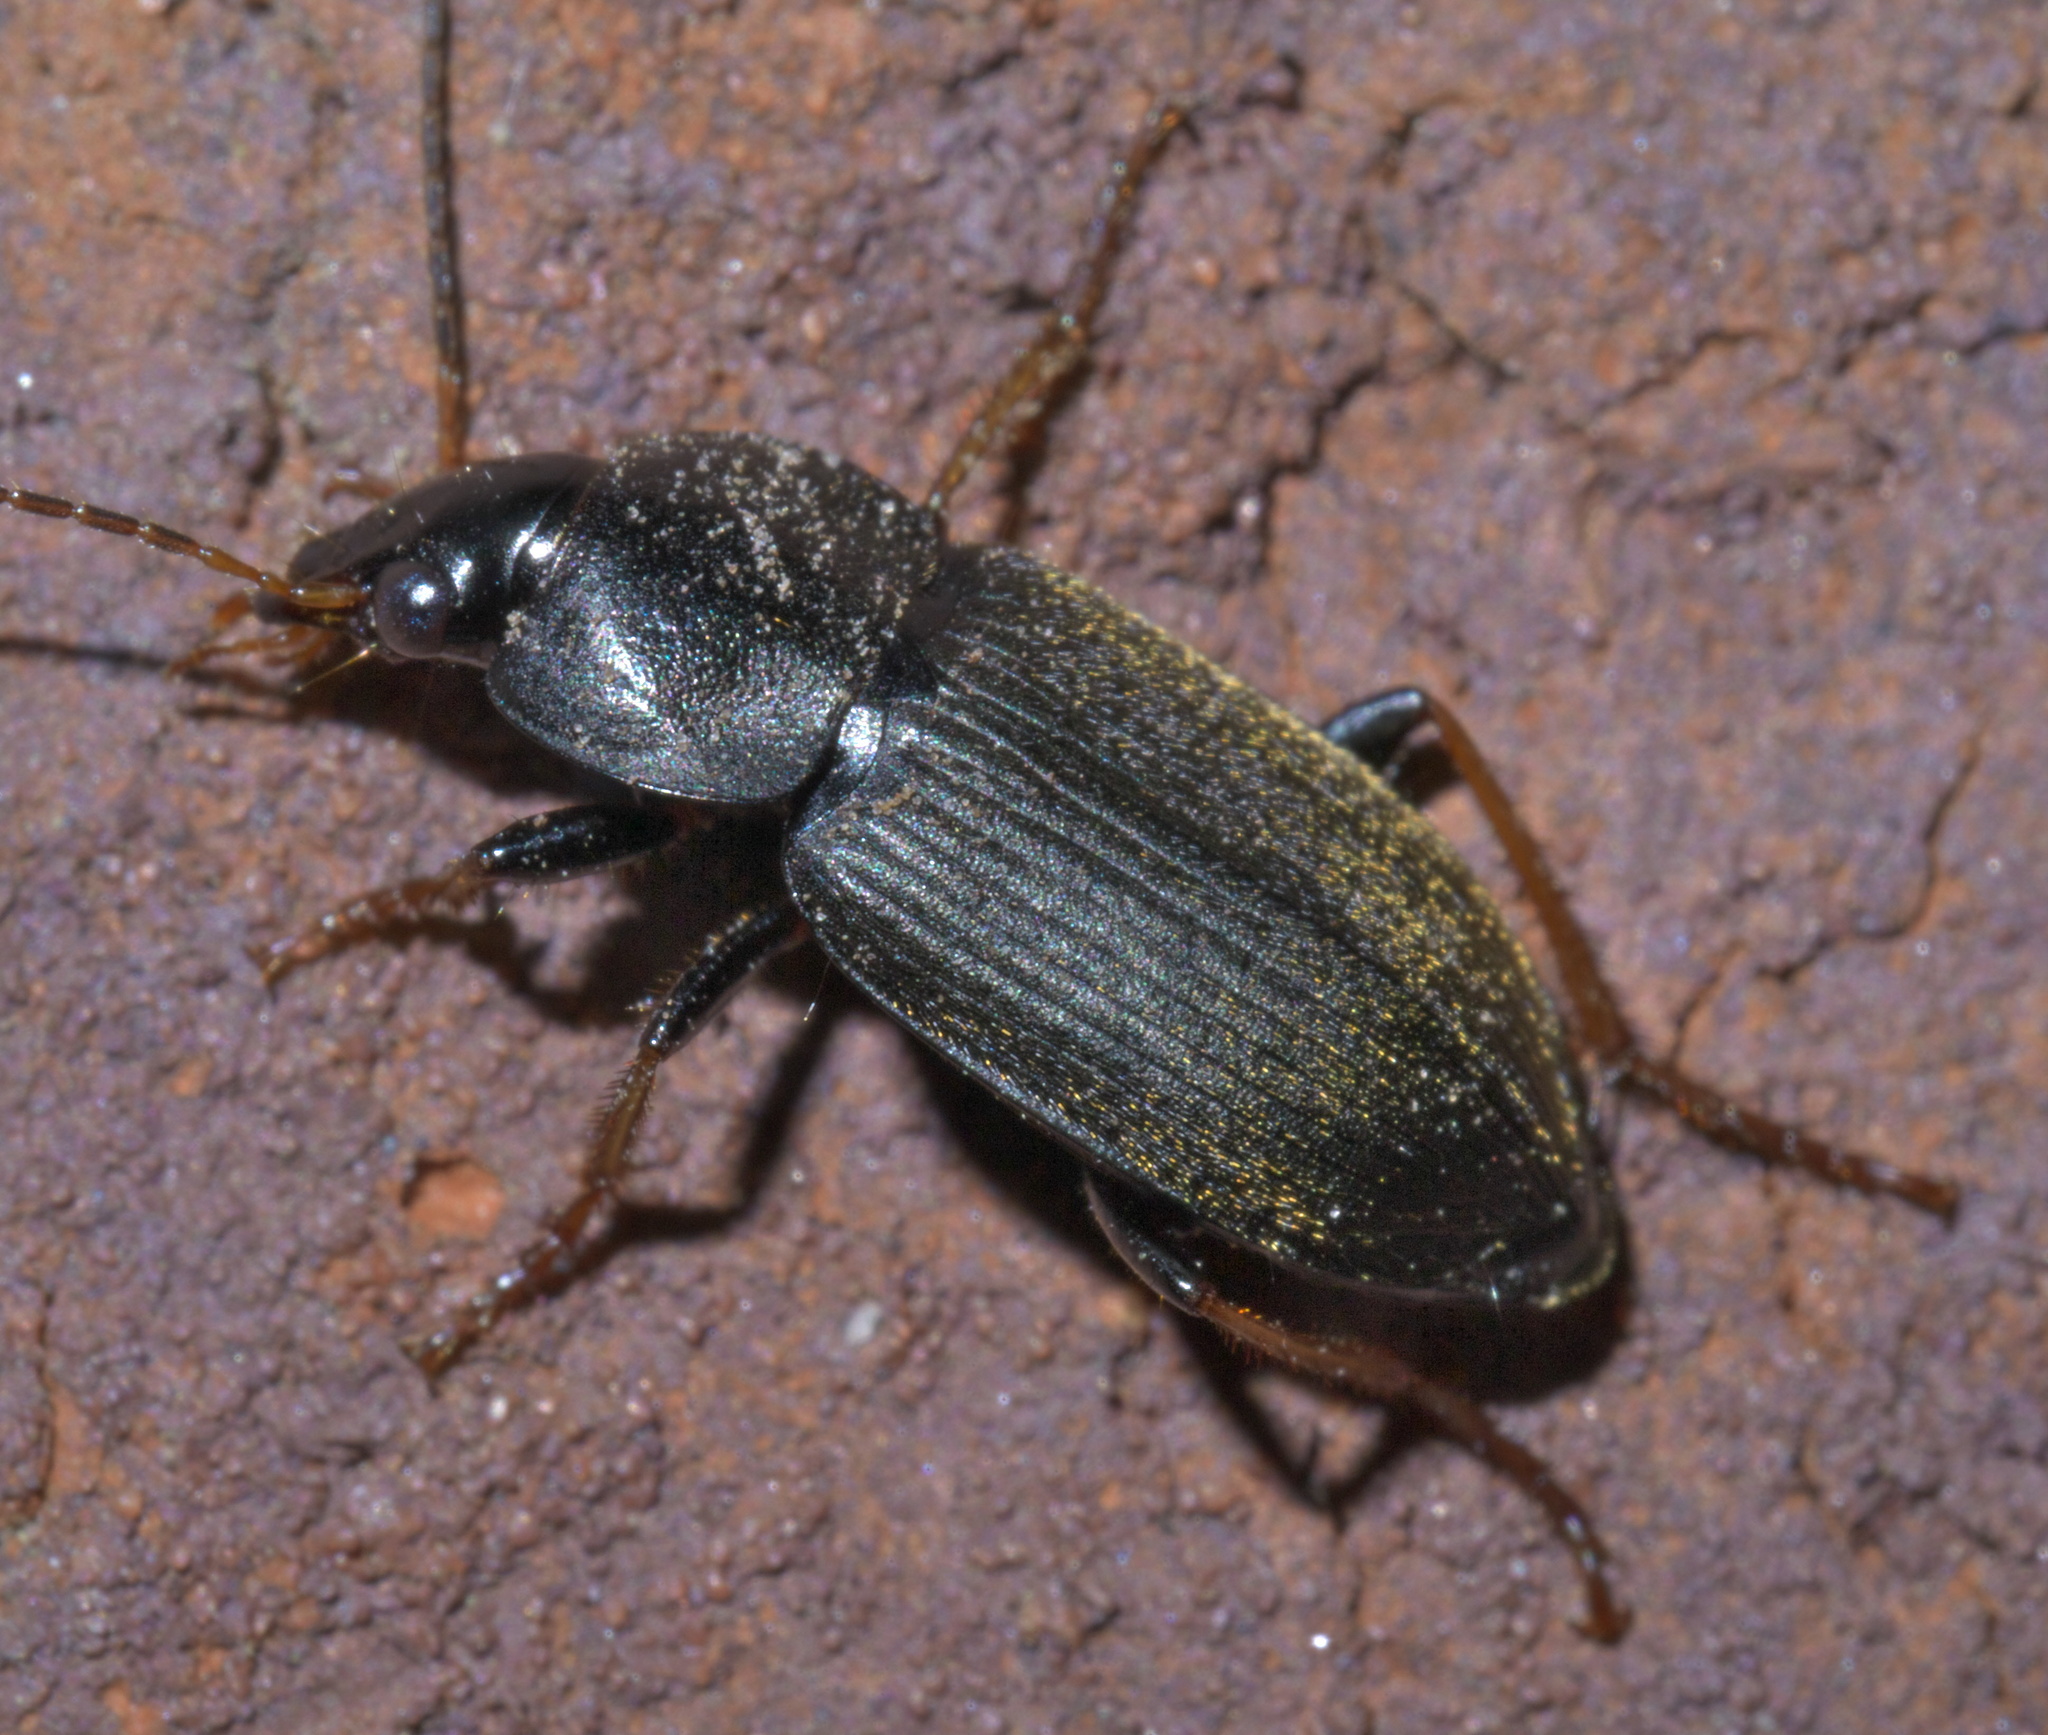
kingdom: Animalia
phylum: Arthropoda
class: Insecta
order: Coleoptera
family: Carabidae
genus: Amphasia
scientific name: Amphasia sericea
